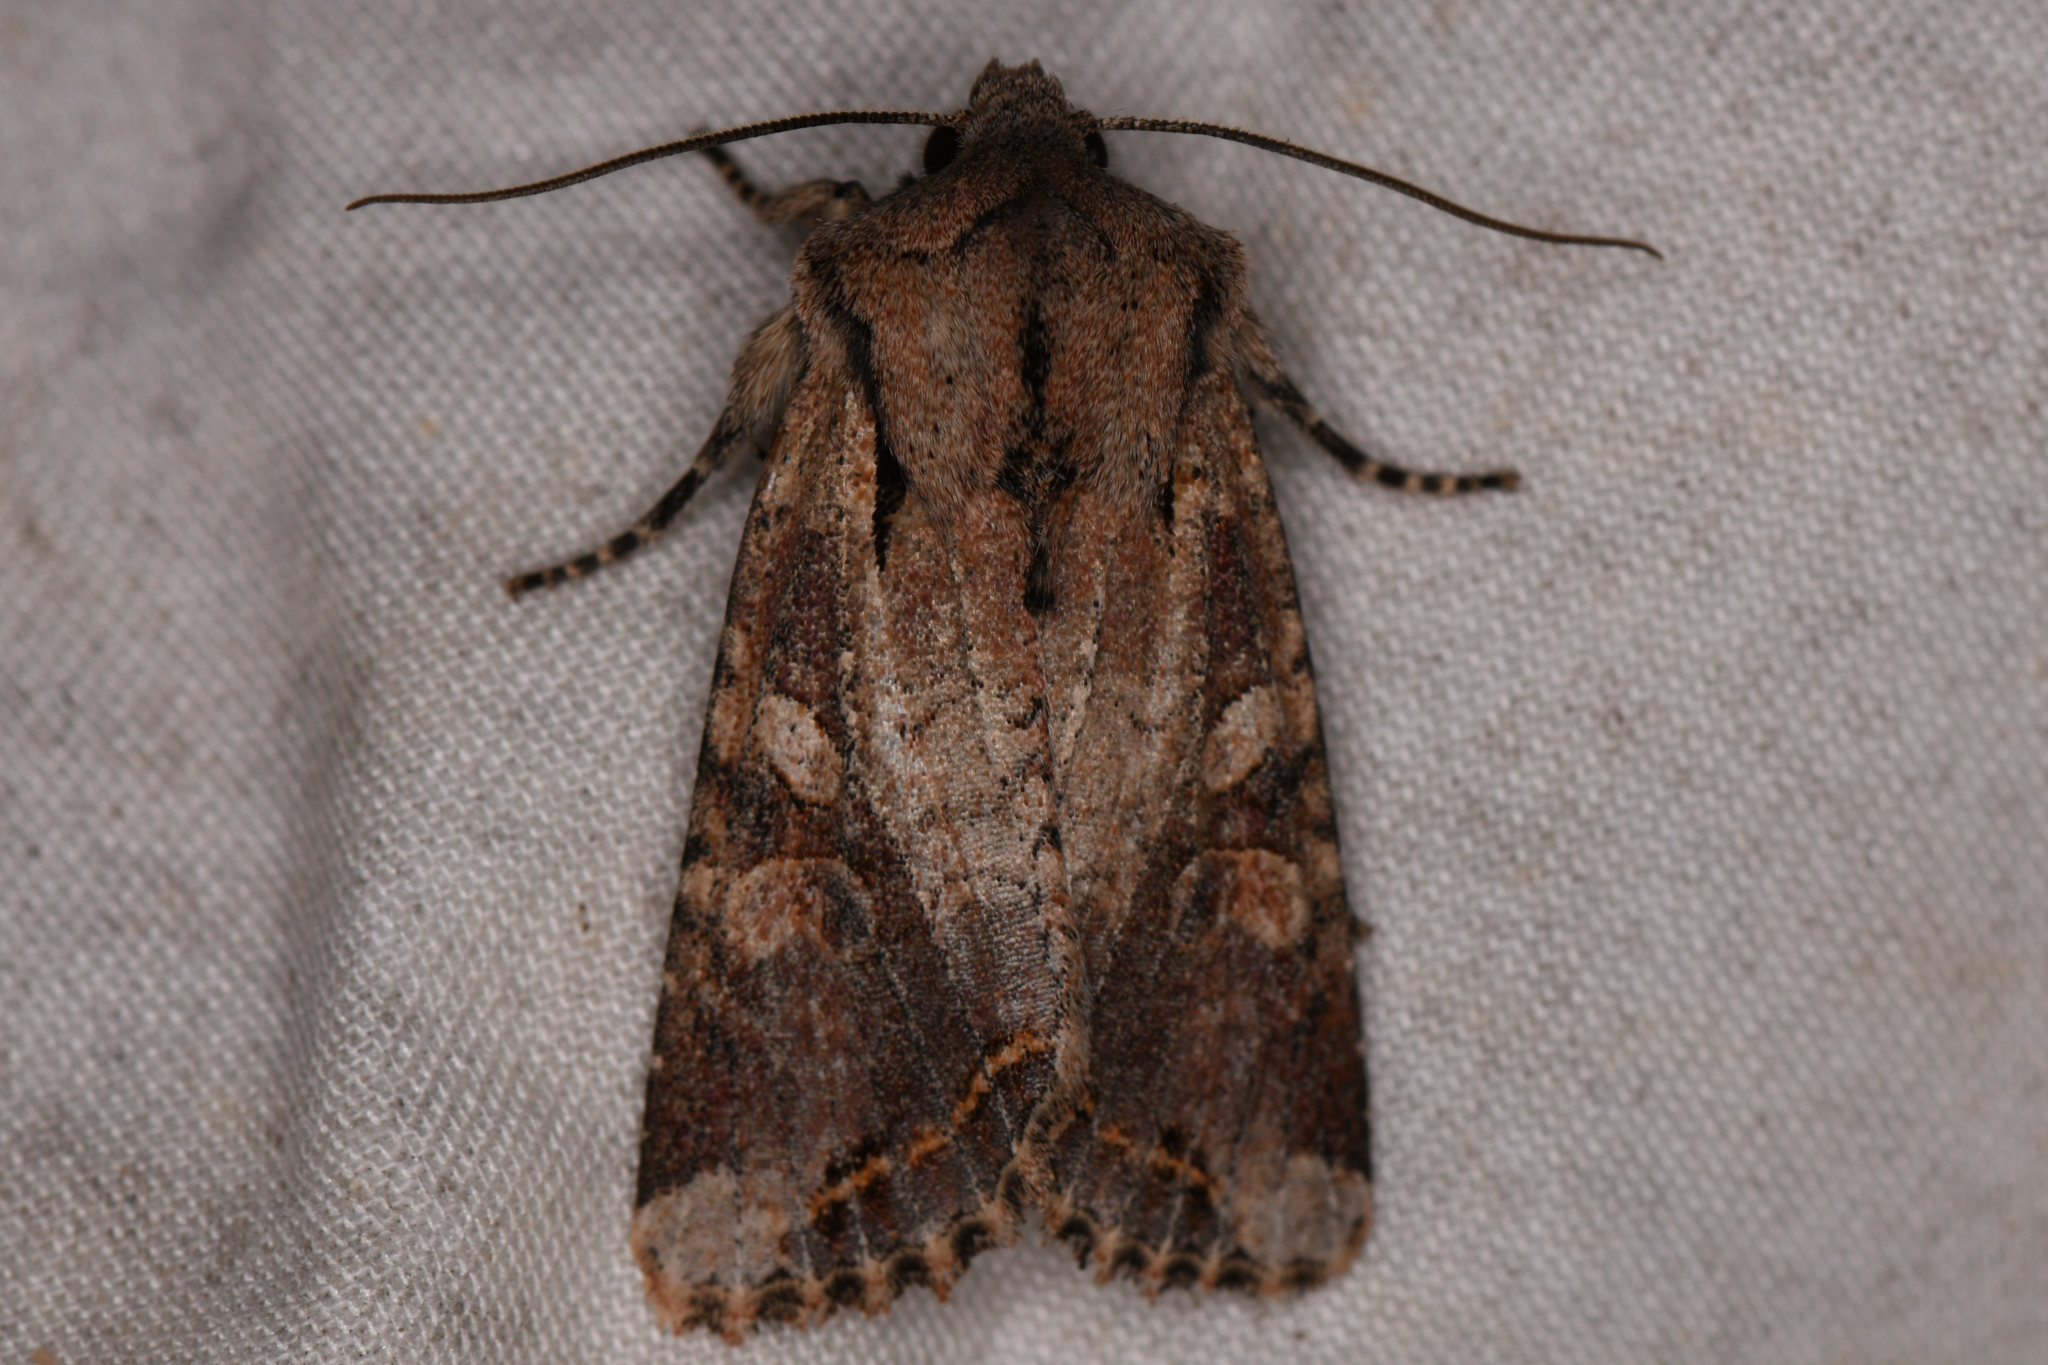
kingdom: Animalia
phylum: Arthropoda
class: Insecta
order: Lepidoptera
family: Noctuidae
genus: Egira
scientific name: Egira rubrica
